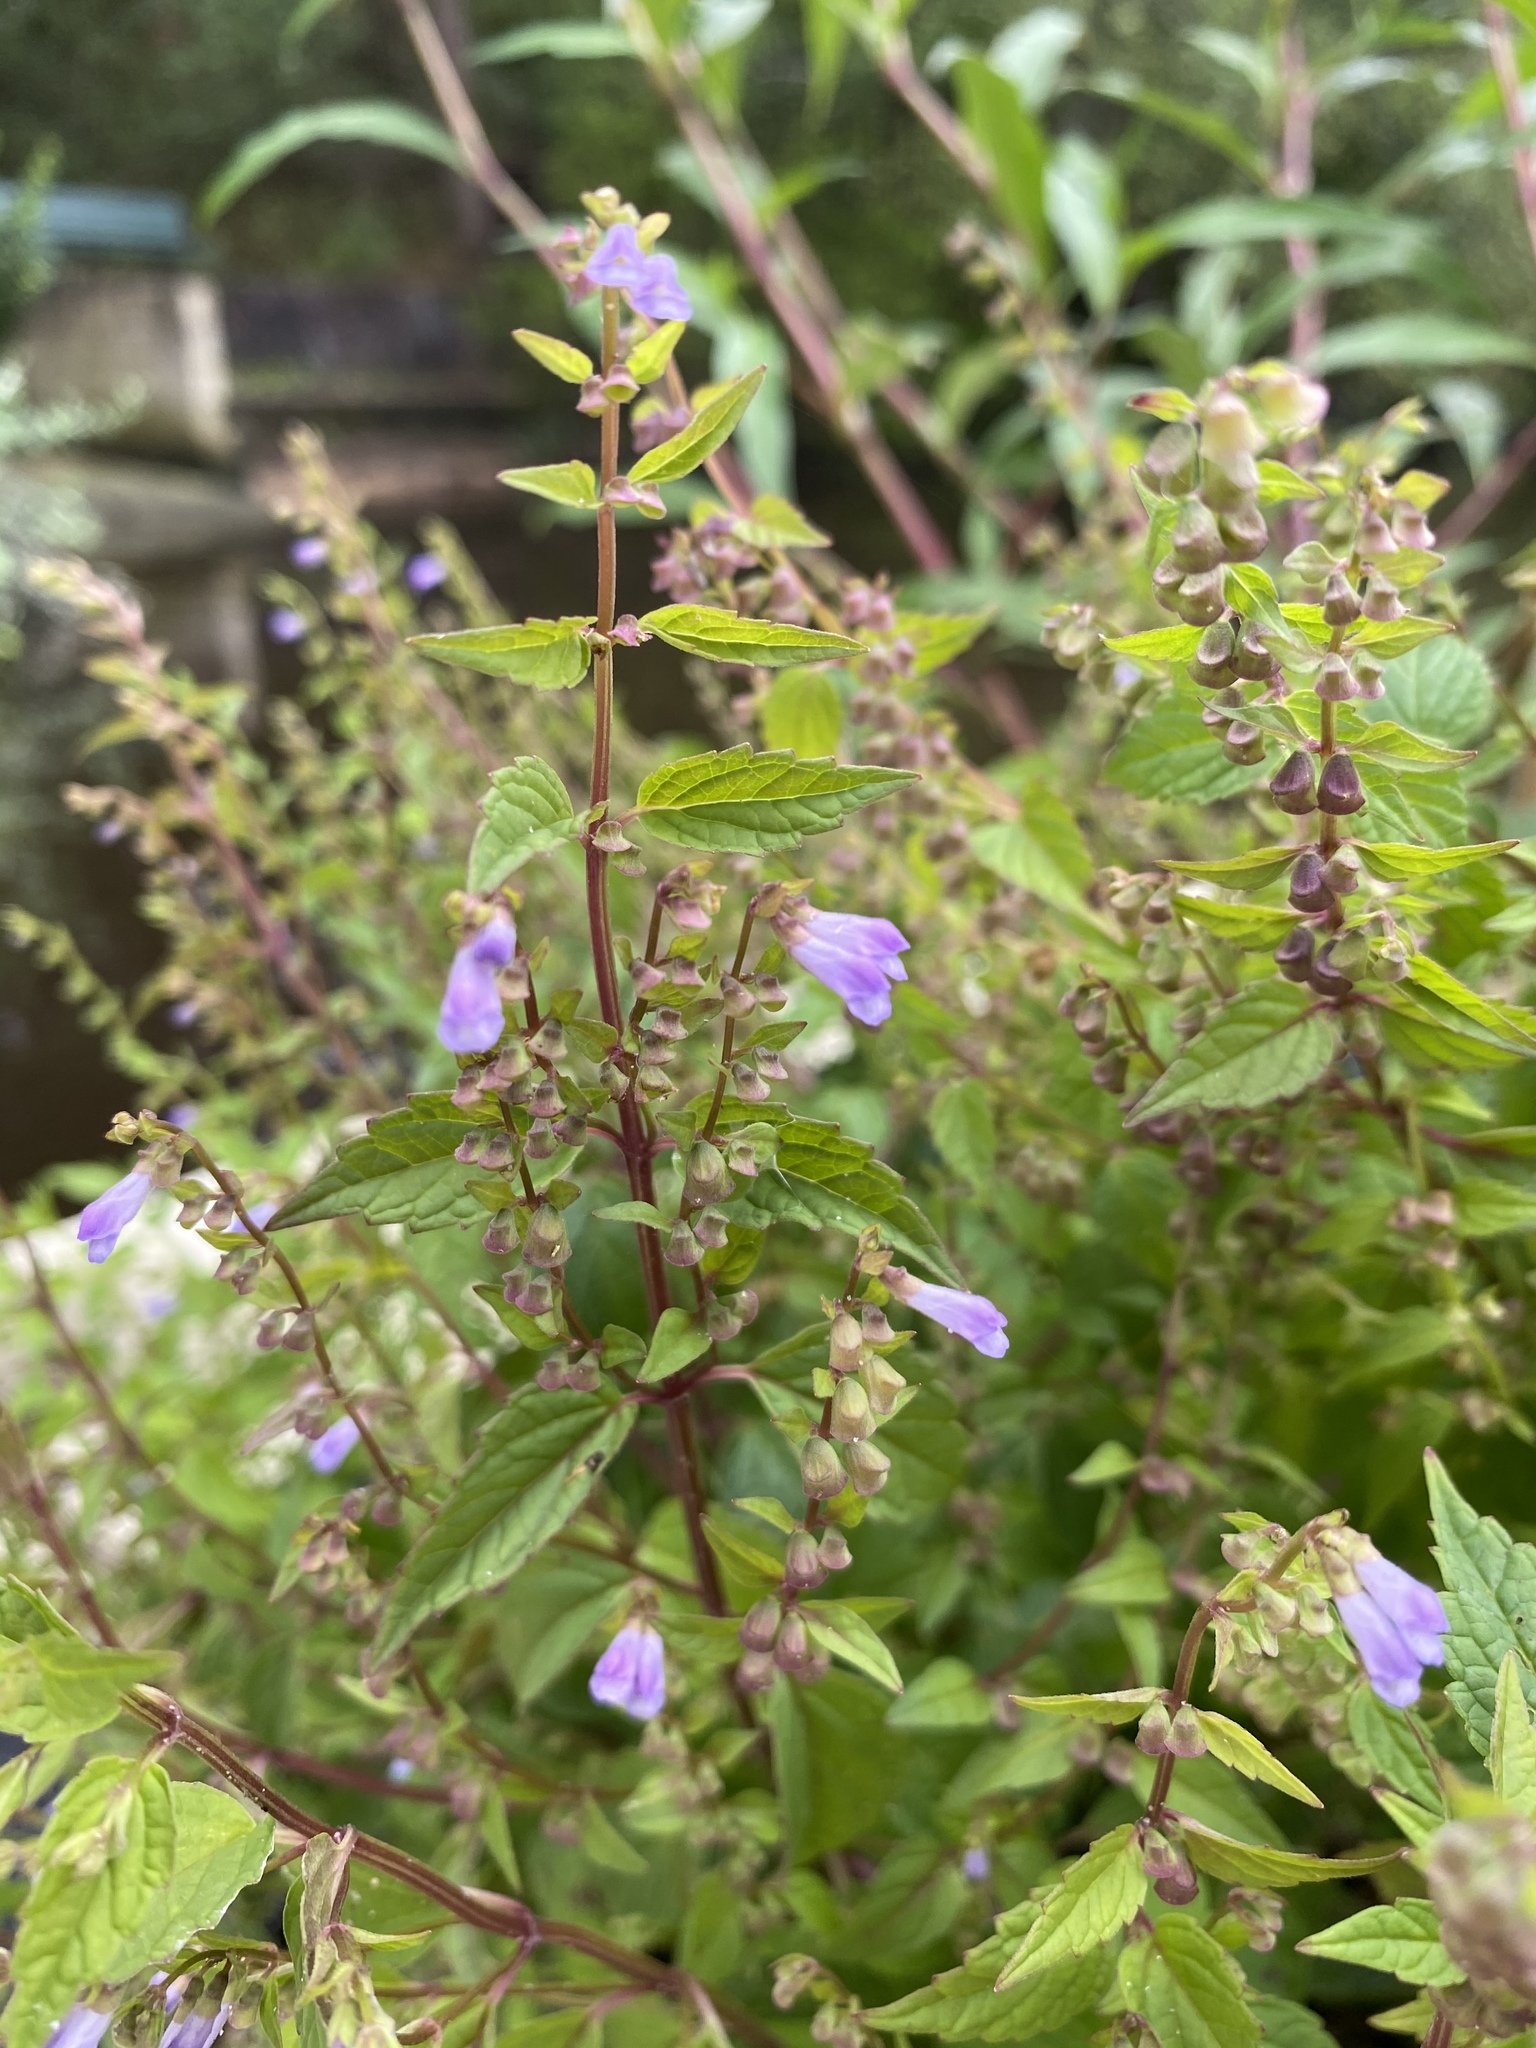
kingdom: Plantae
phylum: Tracheophyta
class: Magnoliopsida
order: Lamiales
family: Lamiaceae
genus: Scutellaria
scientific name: Scutellaria lateriflora
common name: Blue skullcap
